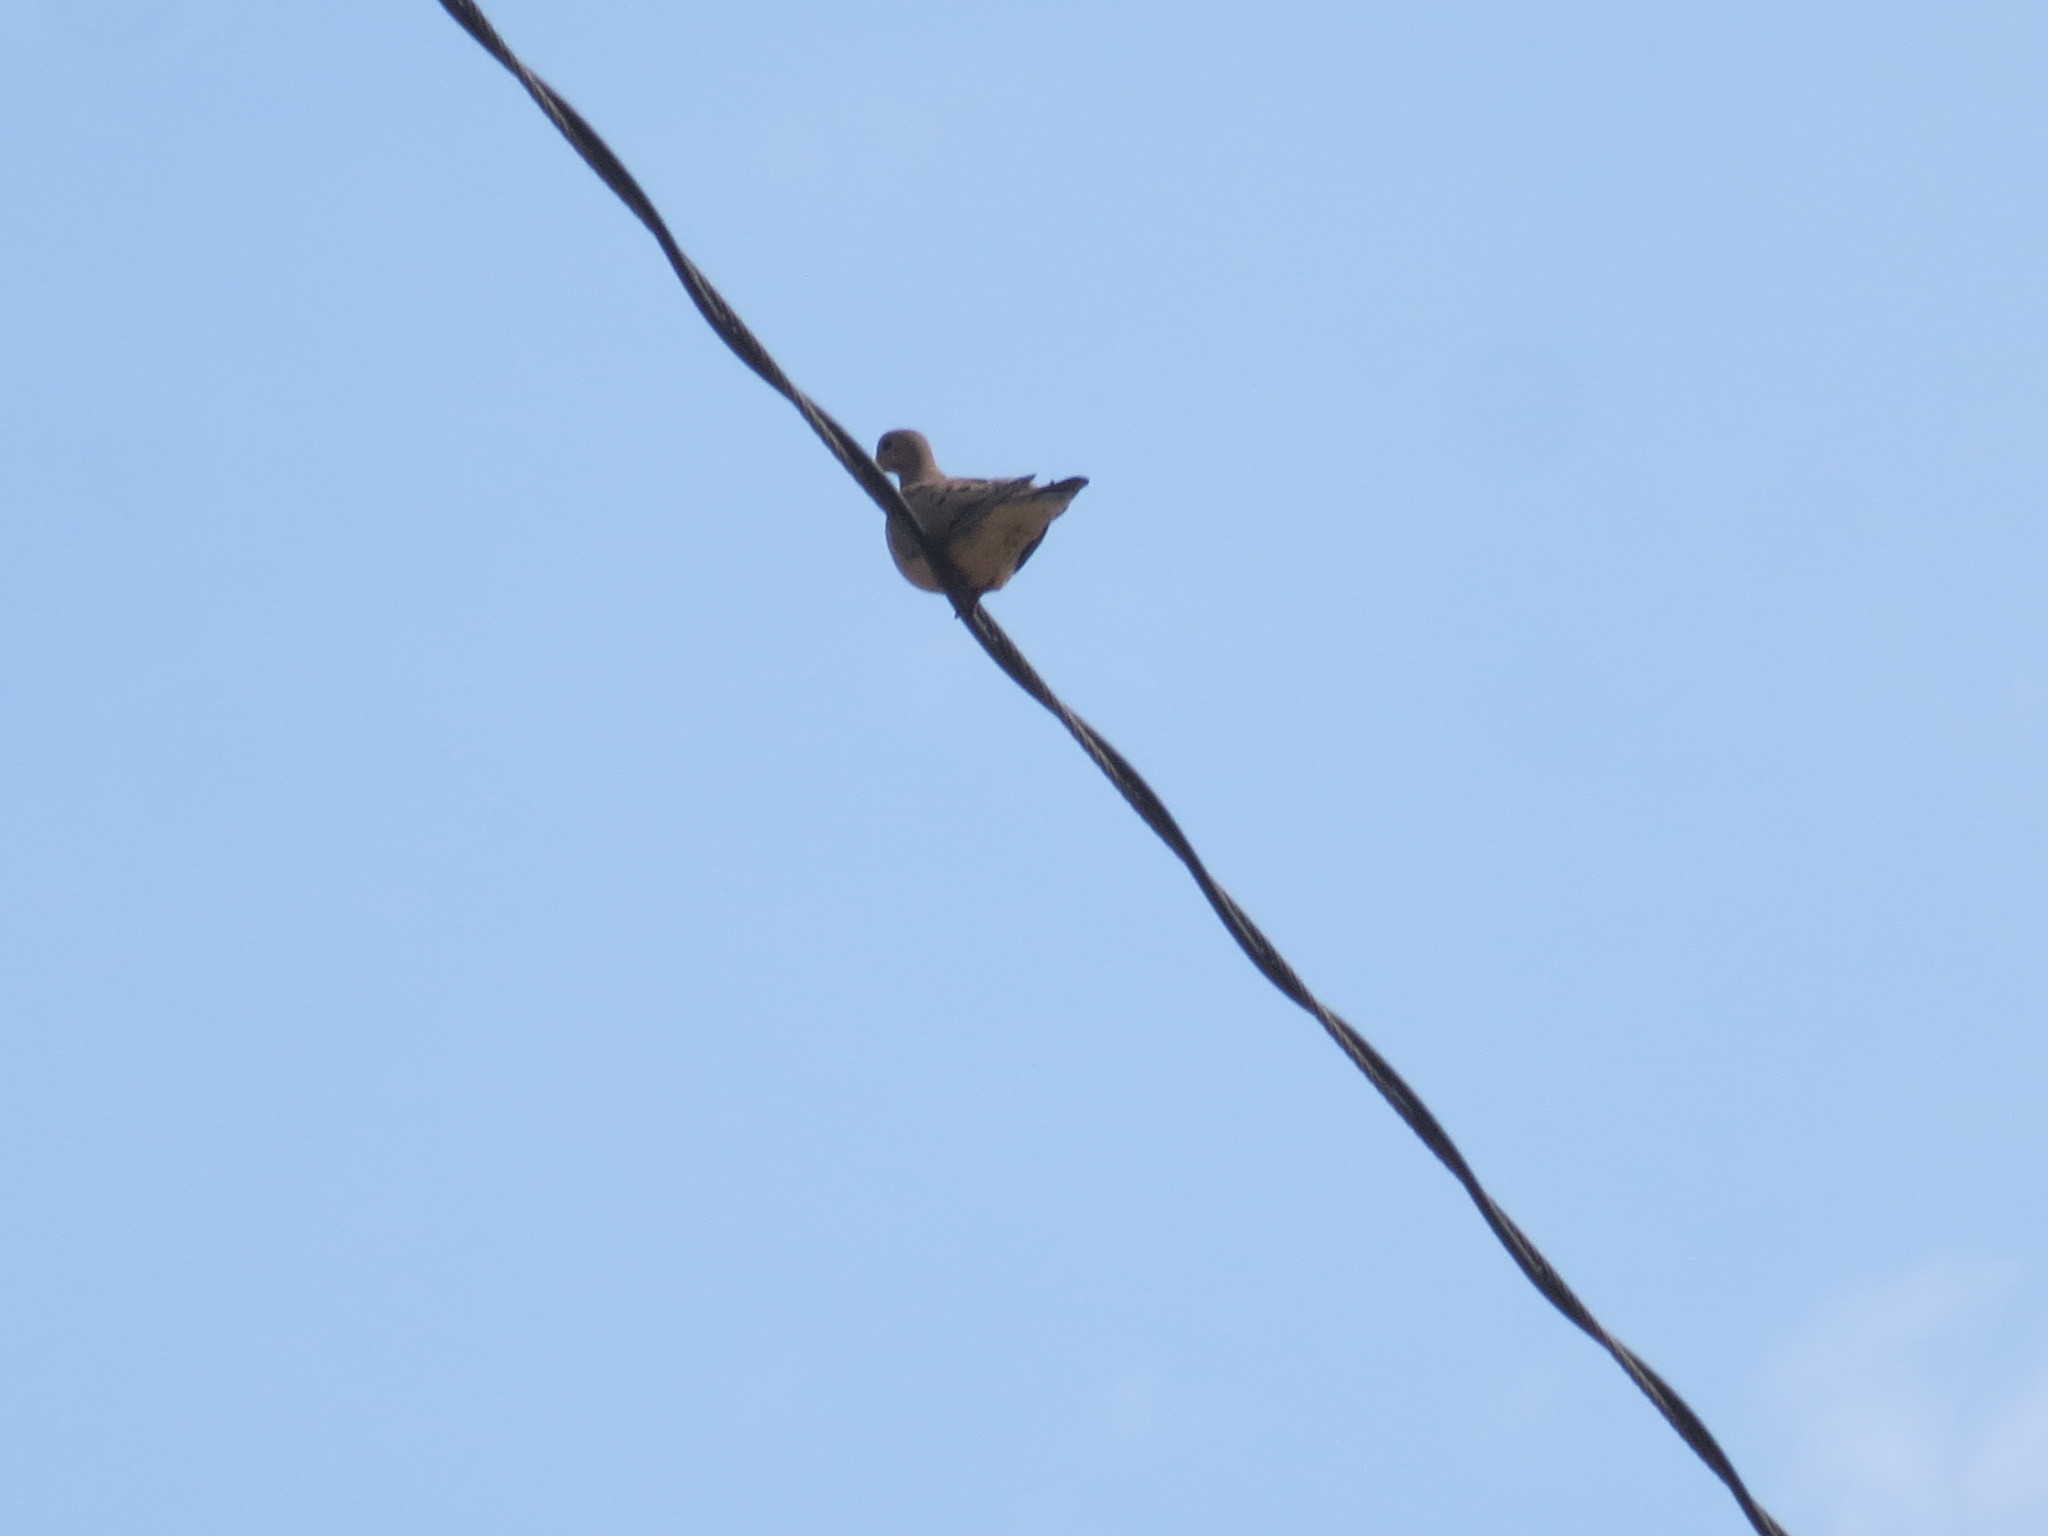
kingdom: Animalia
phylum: Chordata
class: Aves
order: Columbiformes
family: Columbidae
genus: Zenaida
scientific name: Zenaida macroura
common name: Mourning dove
